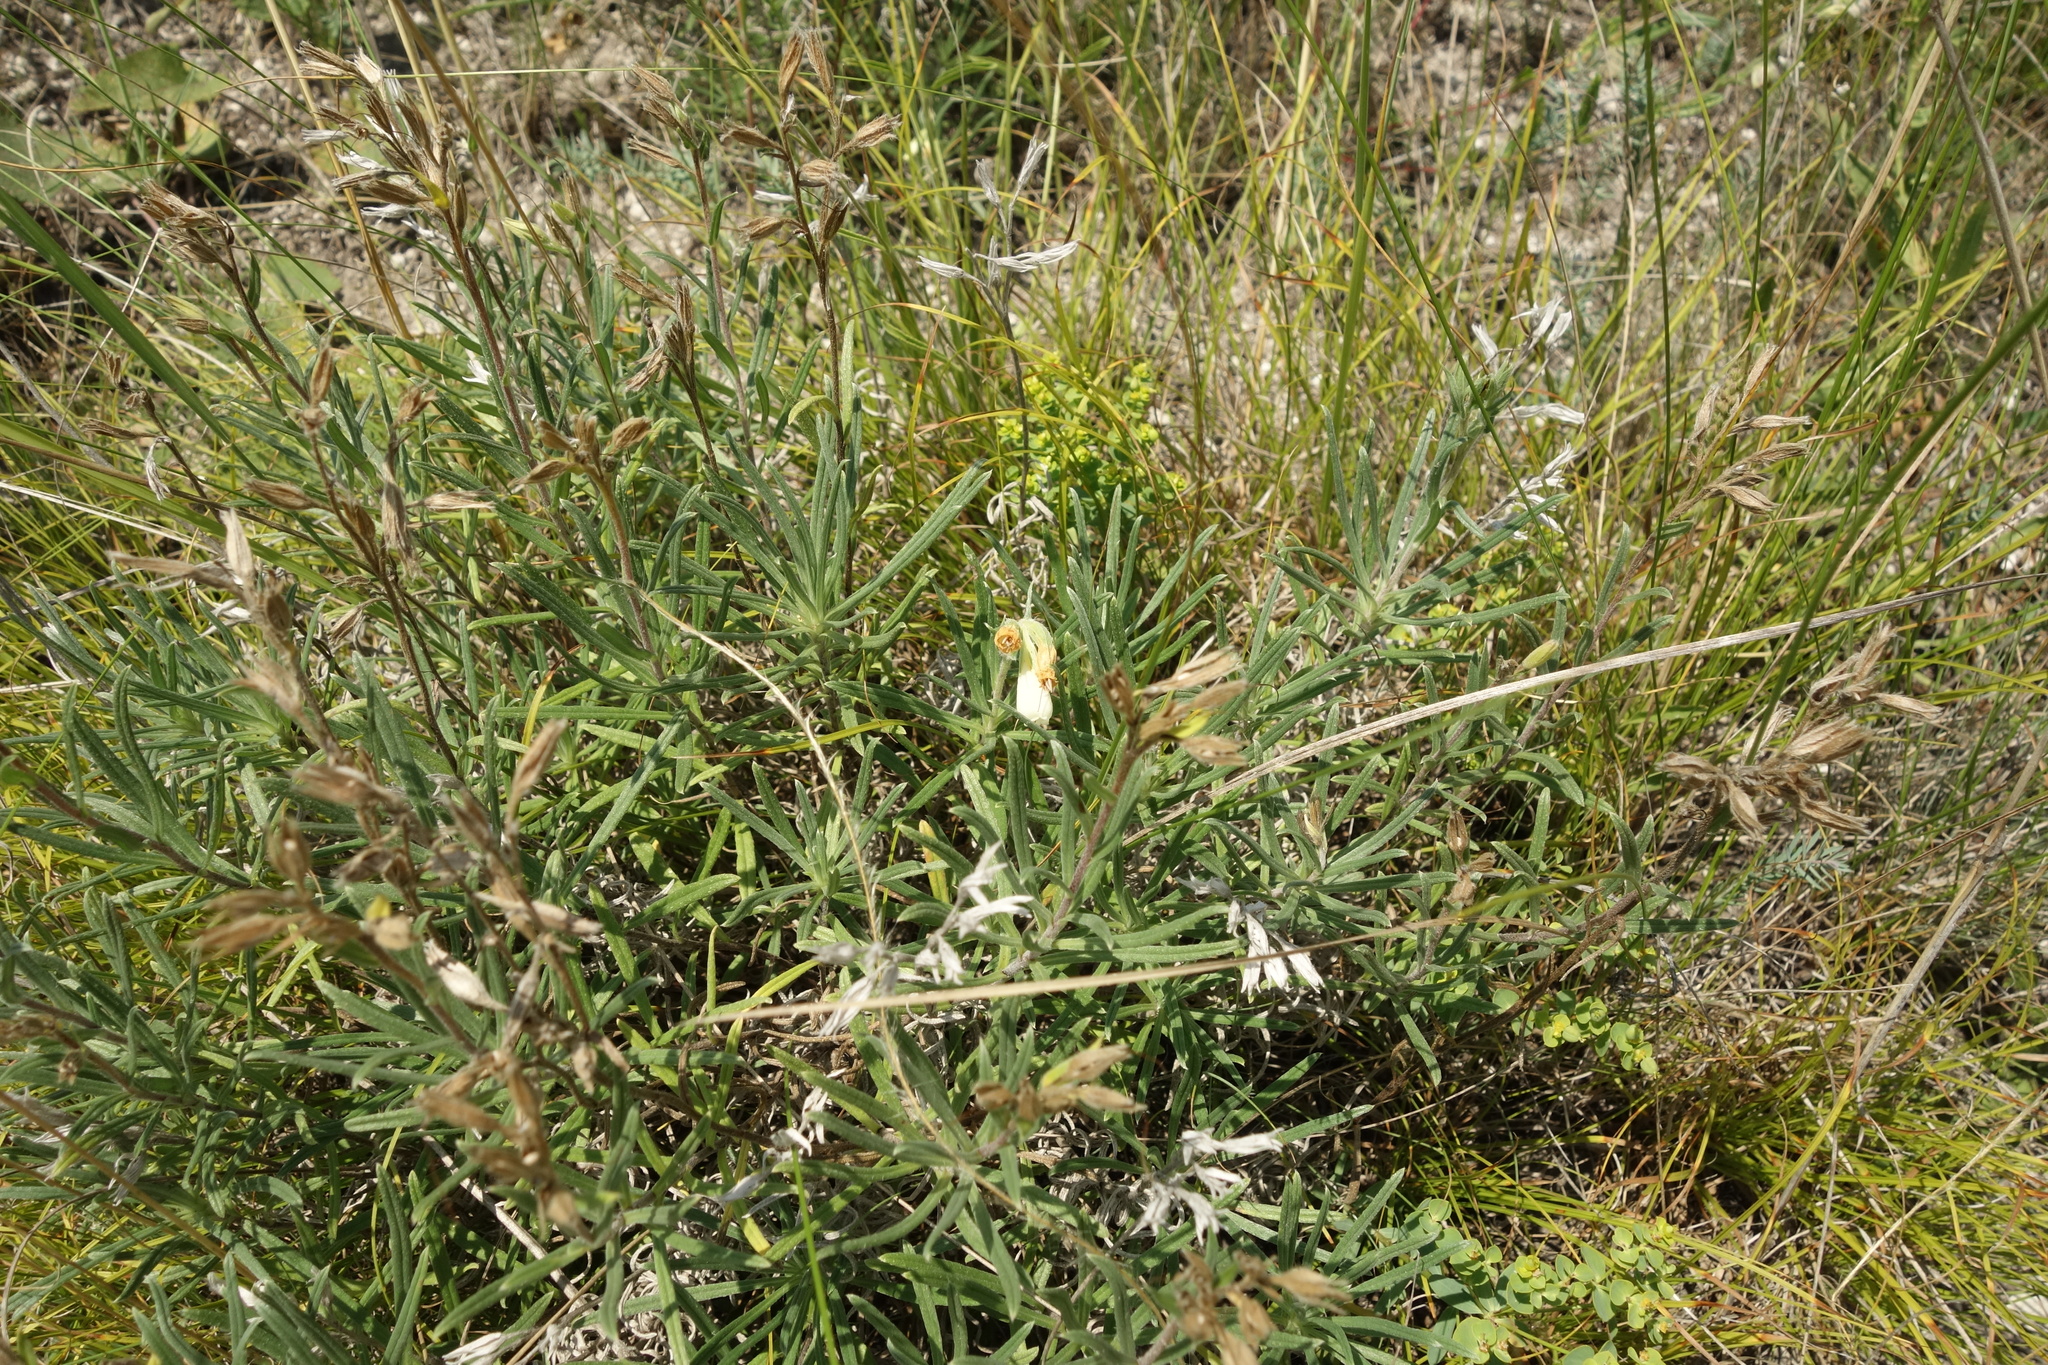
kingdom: Plantae
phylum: Tracheophyta
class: Magnoliopsida
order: Boraginales
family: Boraginaceae
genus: Onosma
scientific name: Onosma simplicissima
